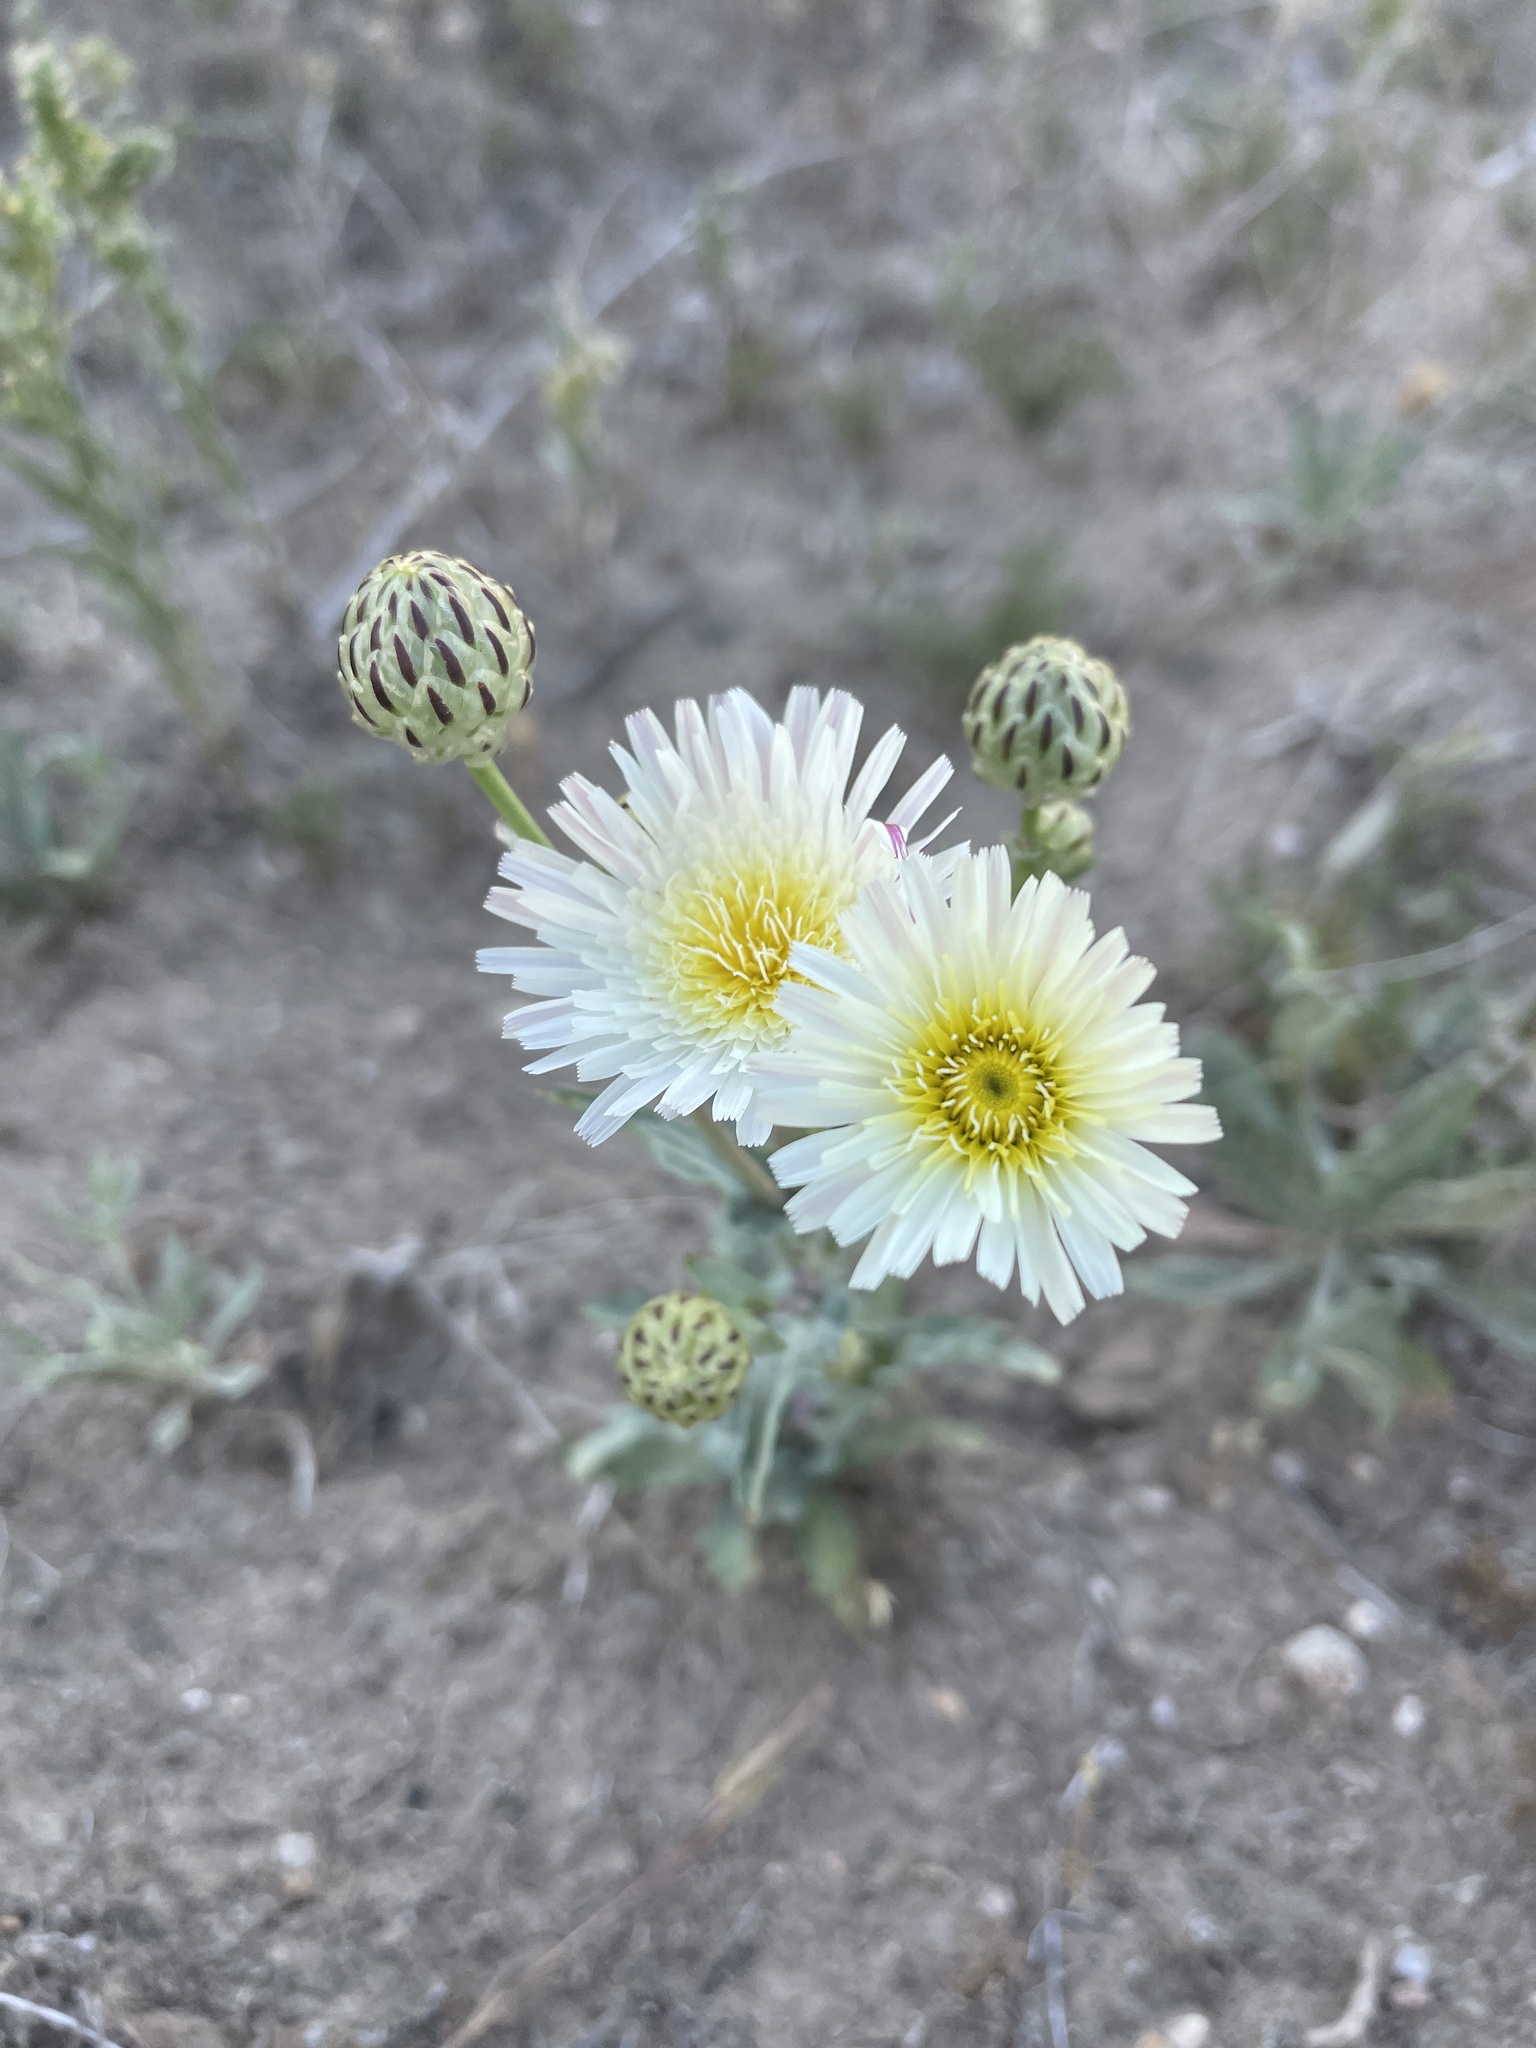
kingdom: Plantae
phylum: Tracheophyta
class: Magnoliopsida
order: Asterales
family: Asteraceae
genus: Malacothrix
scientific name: Malacothrix coulteri
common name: Snake's-head
